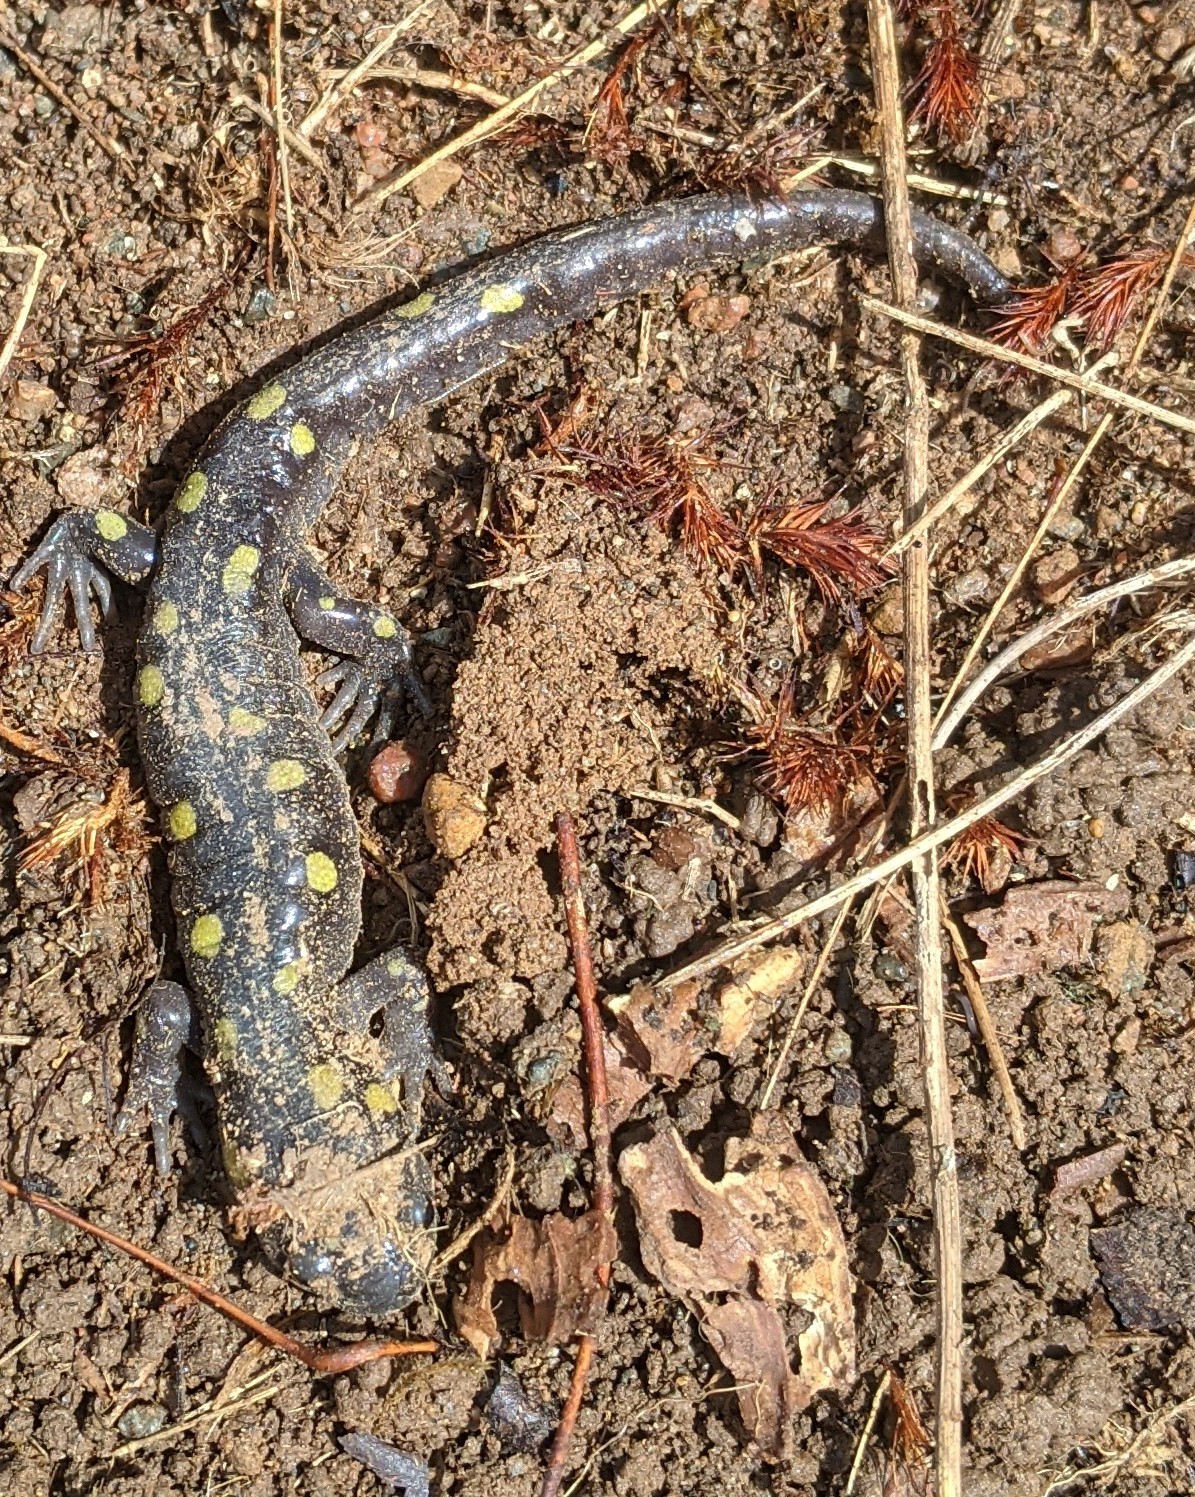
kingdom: Animalia
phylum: Chordata
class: Amphibia
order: Caudata
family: Ambystomatidae
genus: Ambystoma
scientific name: Ambystoma maculatum
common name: Spotted salamander
